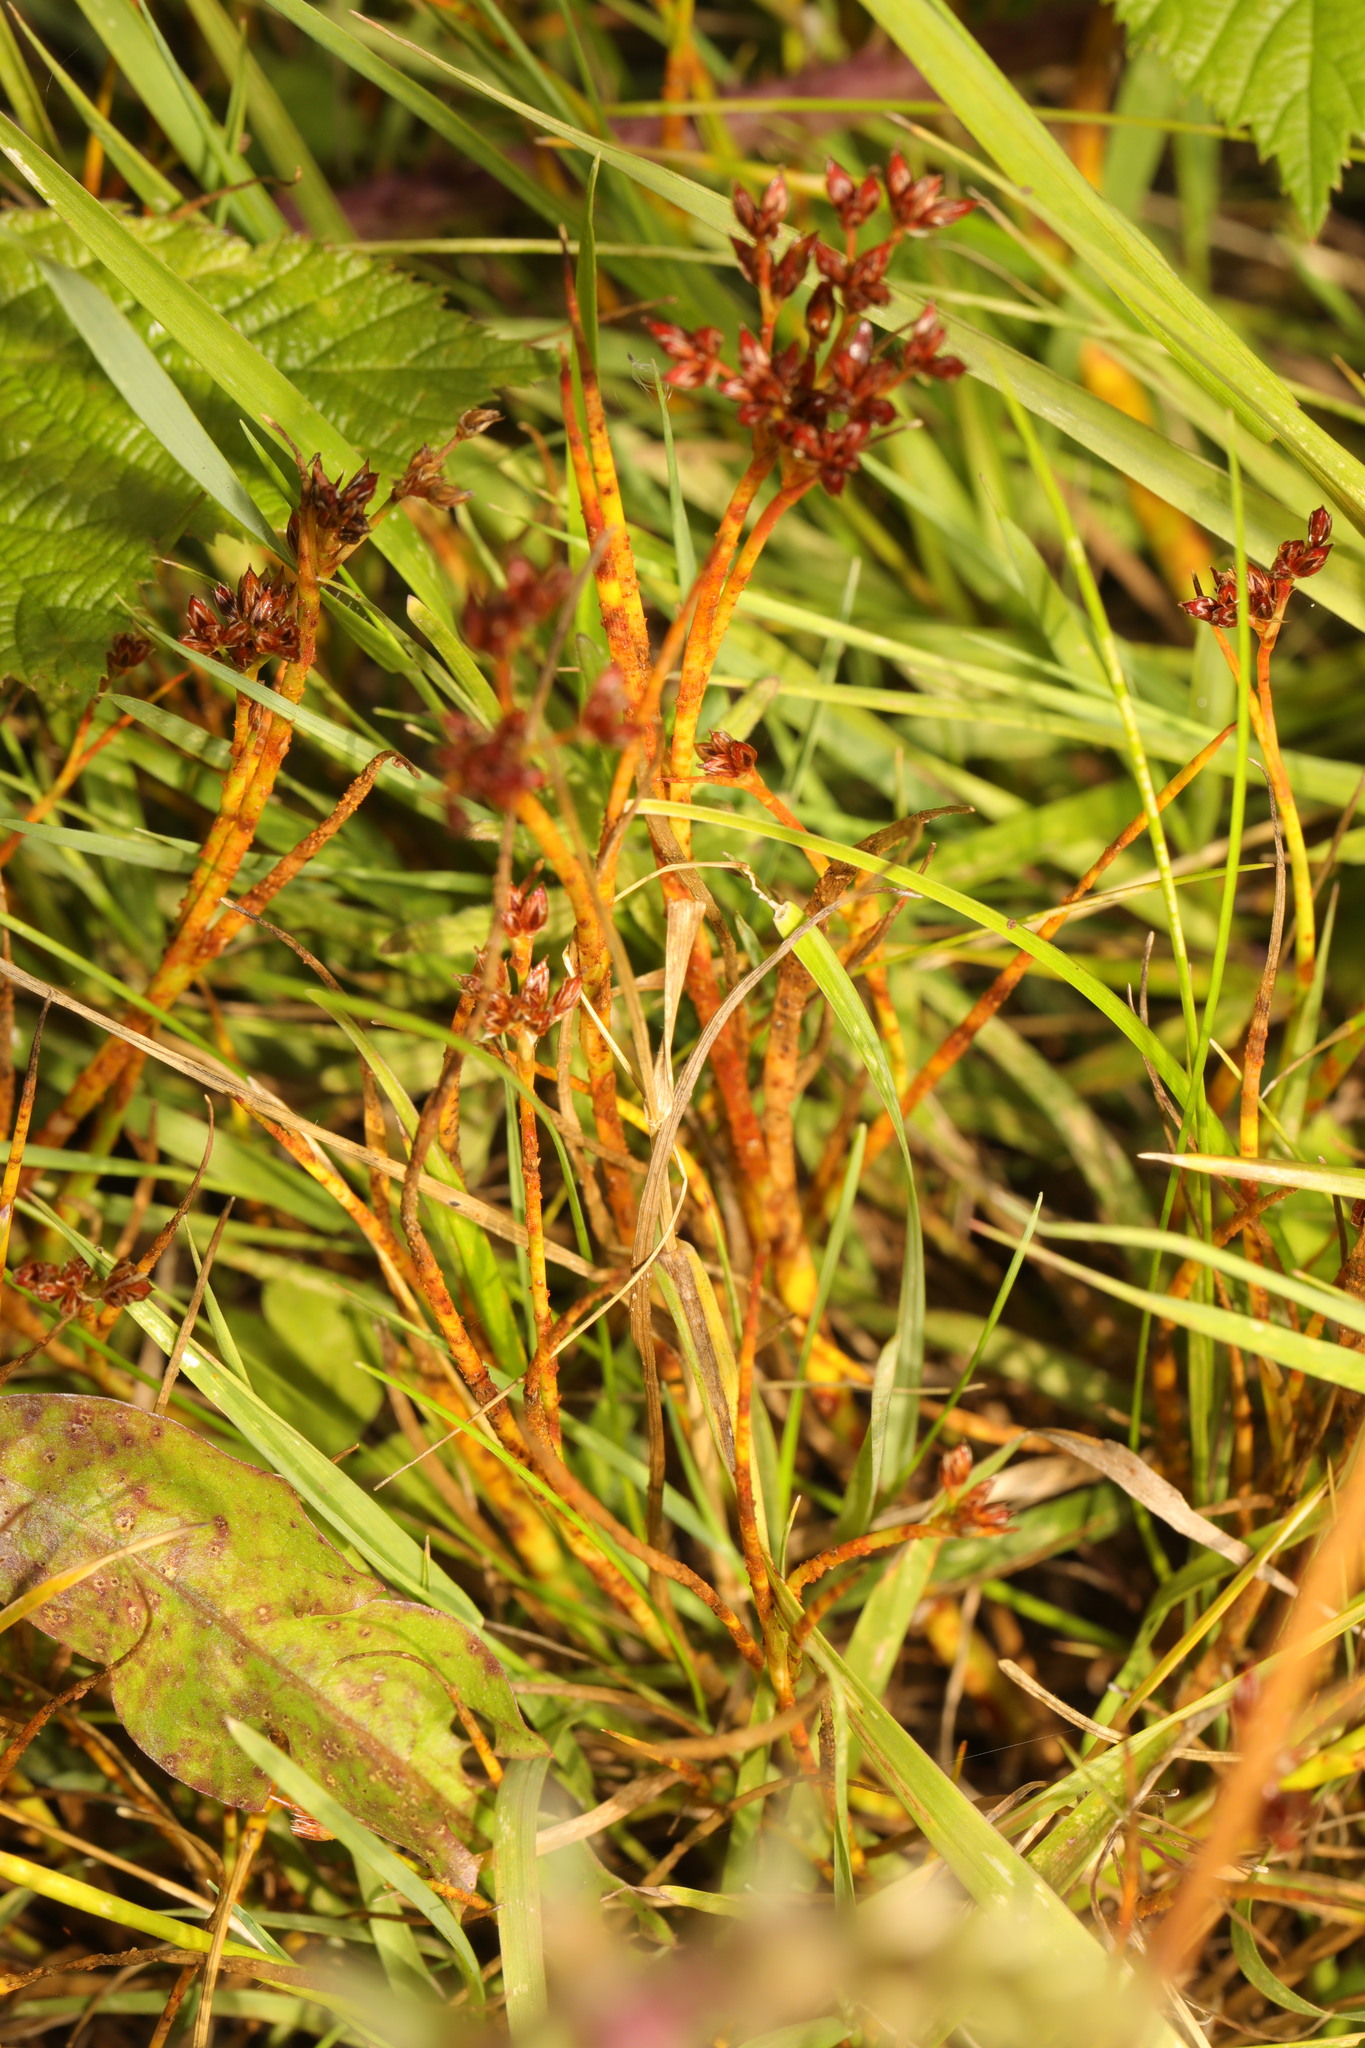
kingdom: Plantae
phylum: Tracheophyta
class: Liliopsida
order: Poales
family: Juncaceae
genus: Juncus
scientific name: Juncus articulatus
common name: Jointed rush
